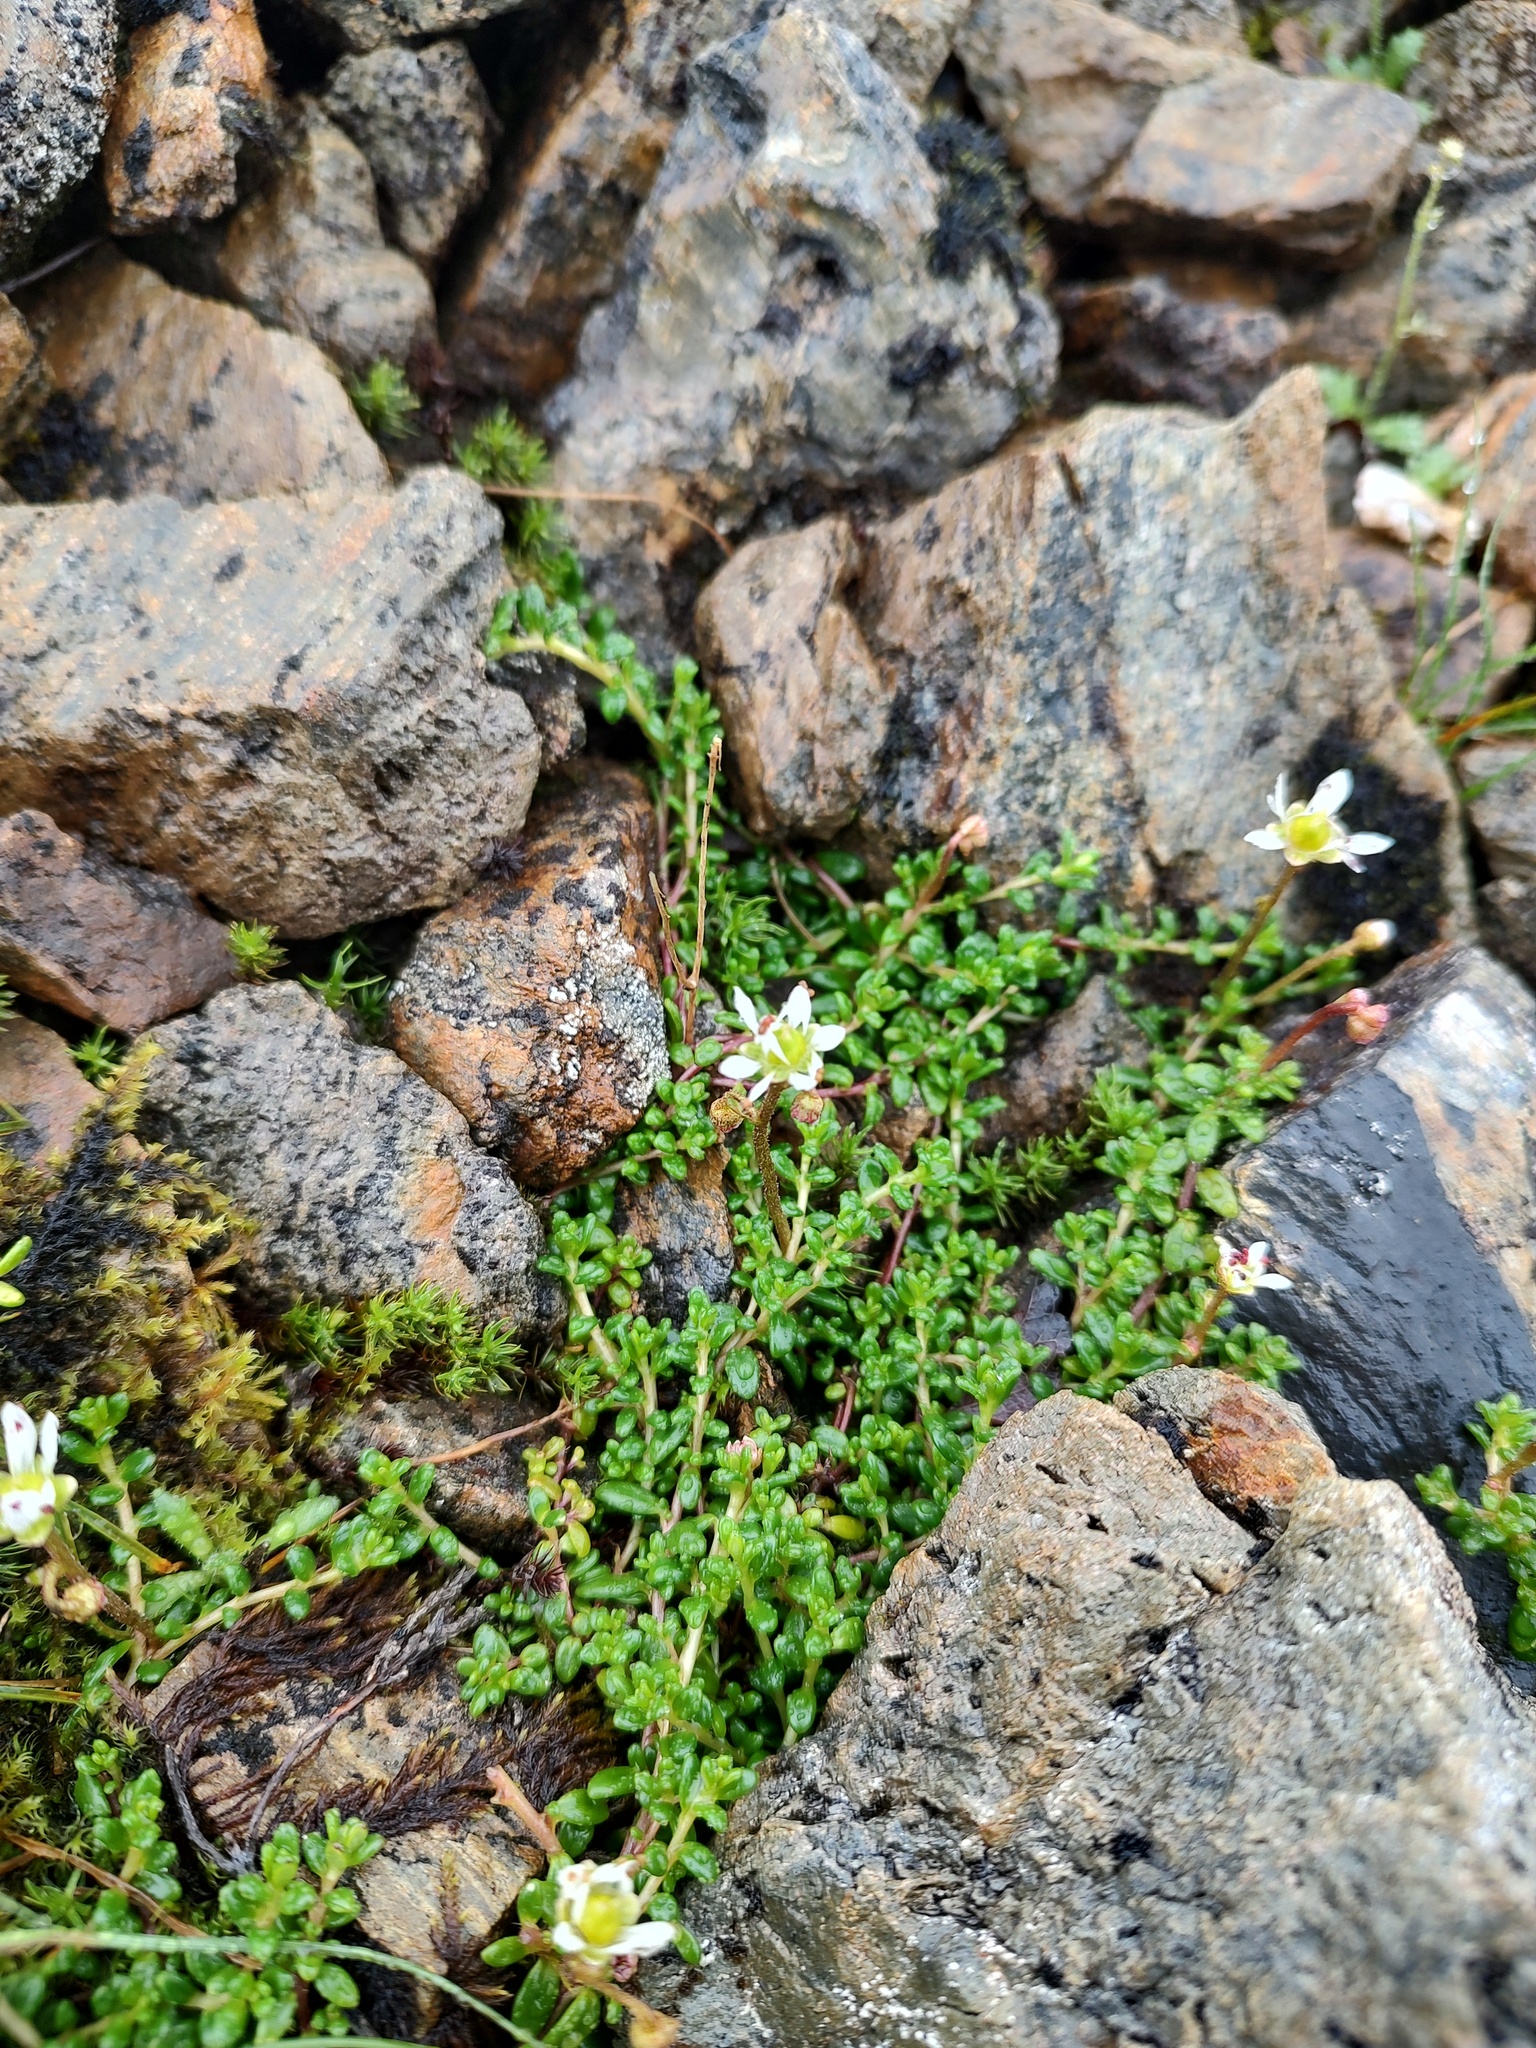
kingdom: Plantae
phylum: Tracheophyta
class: Magnoliopsida
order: Saxifragales
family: Saxifragaceae
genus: Micranthes
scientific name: Micranthes tolmiei
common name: Tolmie's saxifrage
